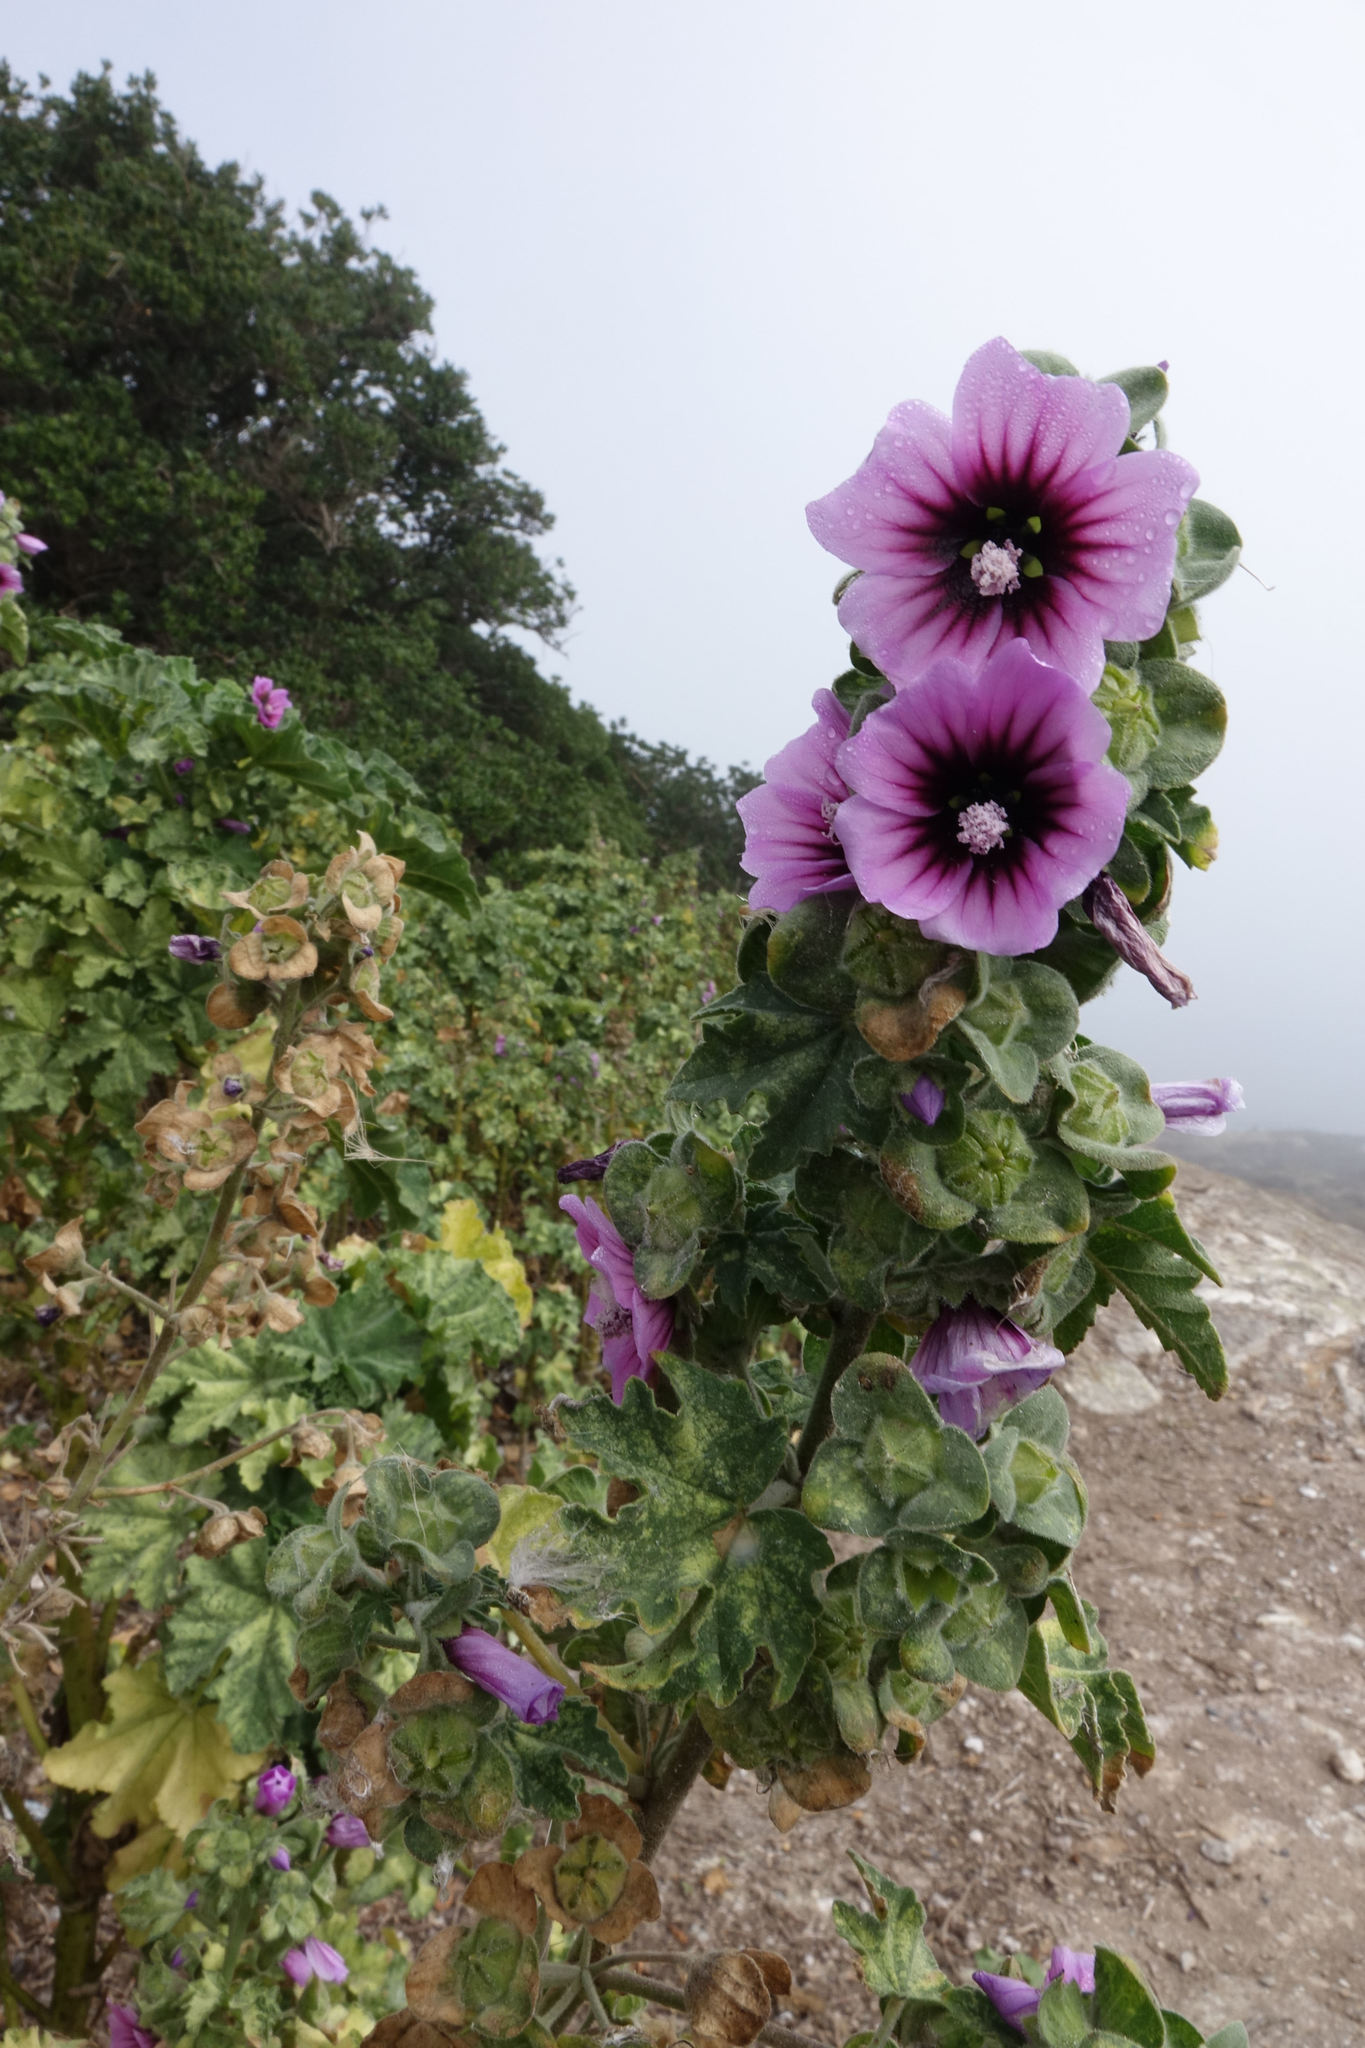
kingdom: Plantae
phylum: Tracheophyta
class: Magnoliopsida
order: Malvales
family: Malvaceae
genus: Malva
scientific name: Malva arborea
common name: Tree mallow
